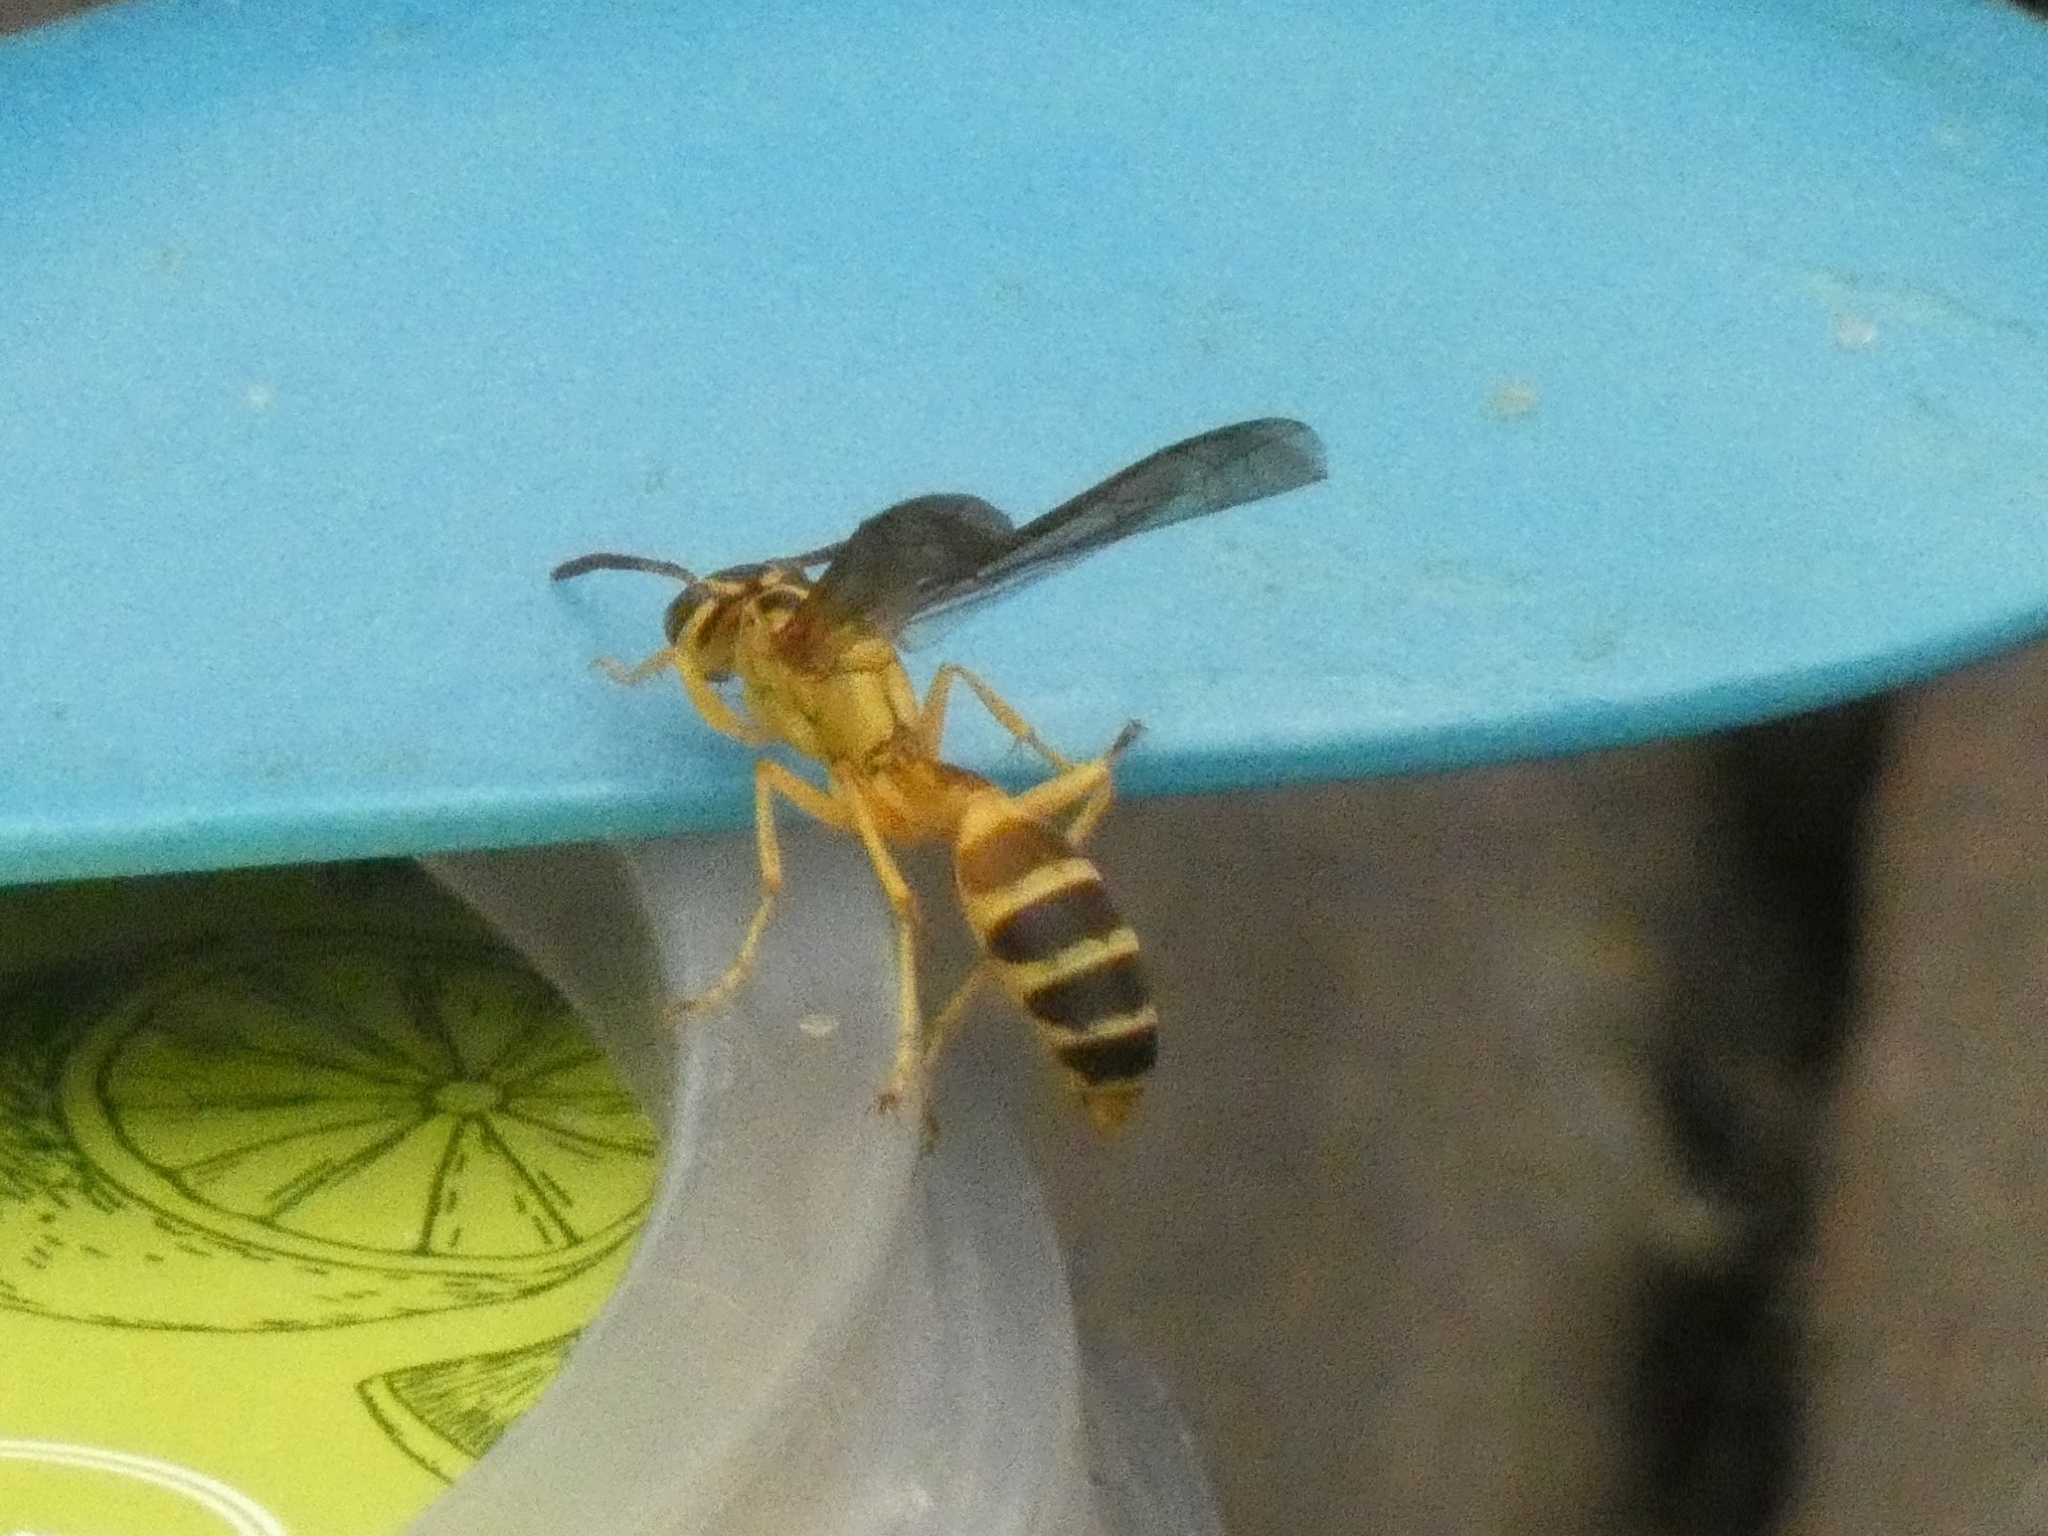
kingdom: Animalia
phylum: Arthropoda
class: Insecta
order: Hymenoptera
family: Vespidae
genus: Agelaia
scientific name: Agelaia
